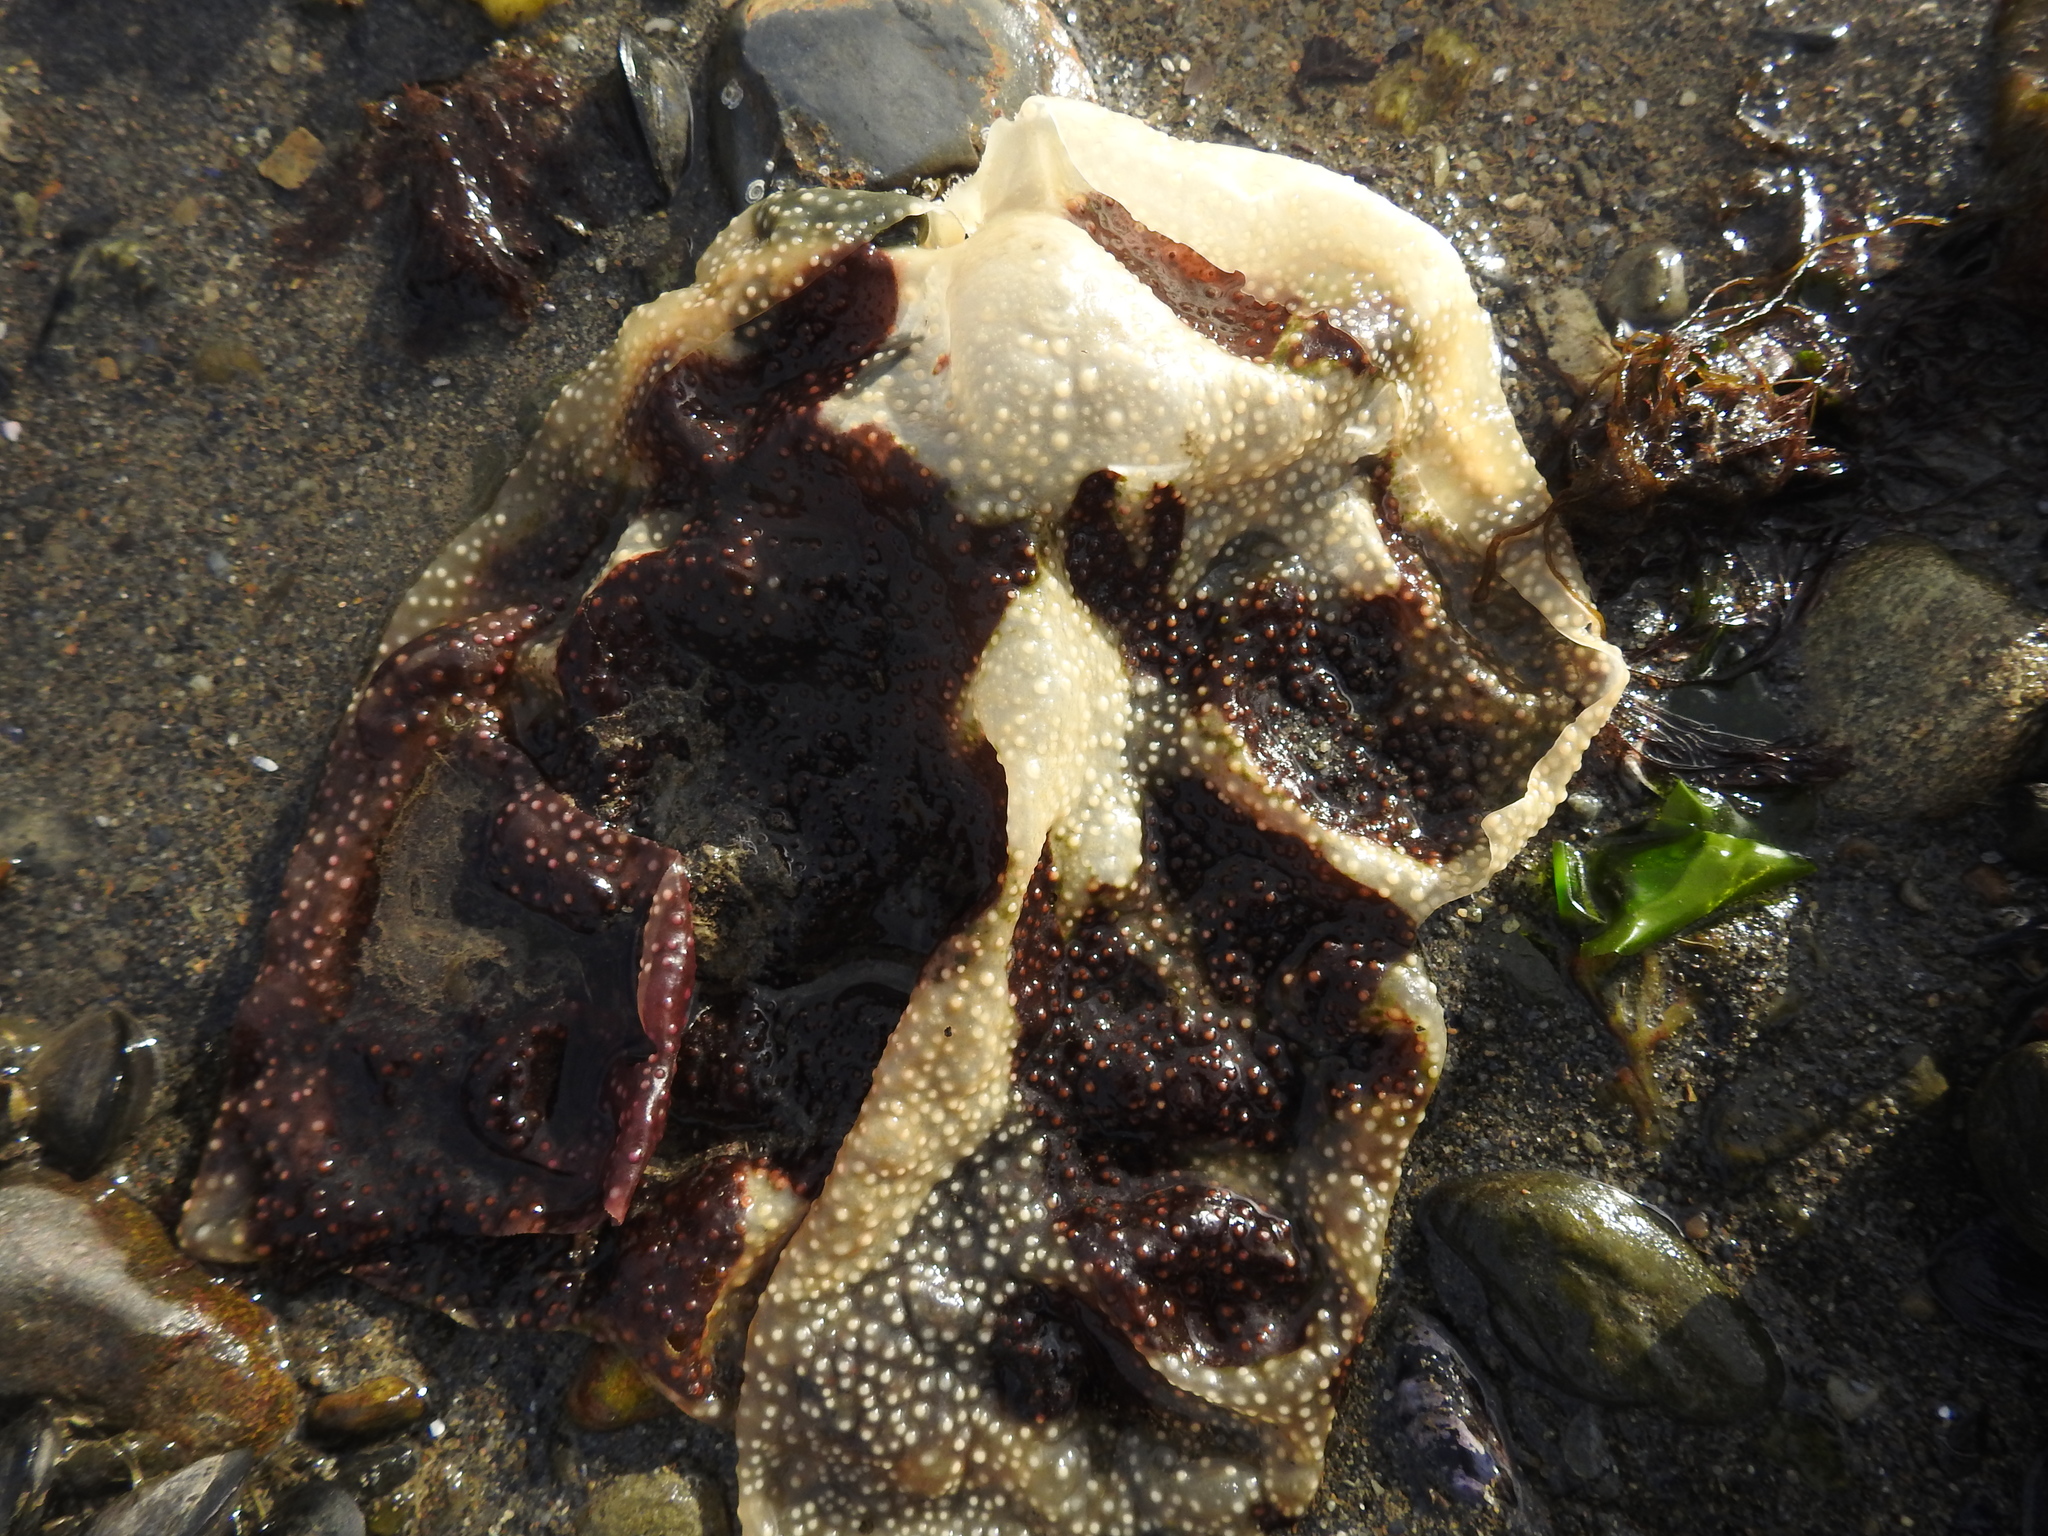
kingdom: Plantae
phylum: Rhodophyta
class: Florideophyceae
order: Gigartinales
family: Gigartinaceae
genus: Sarcothalia
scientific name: Sarcothalia
